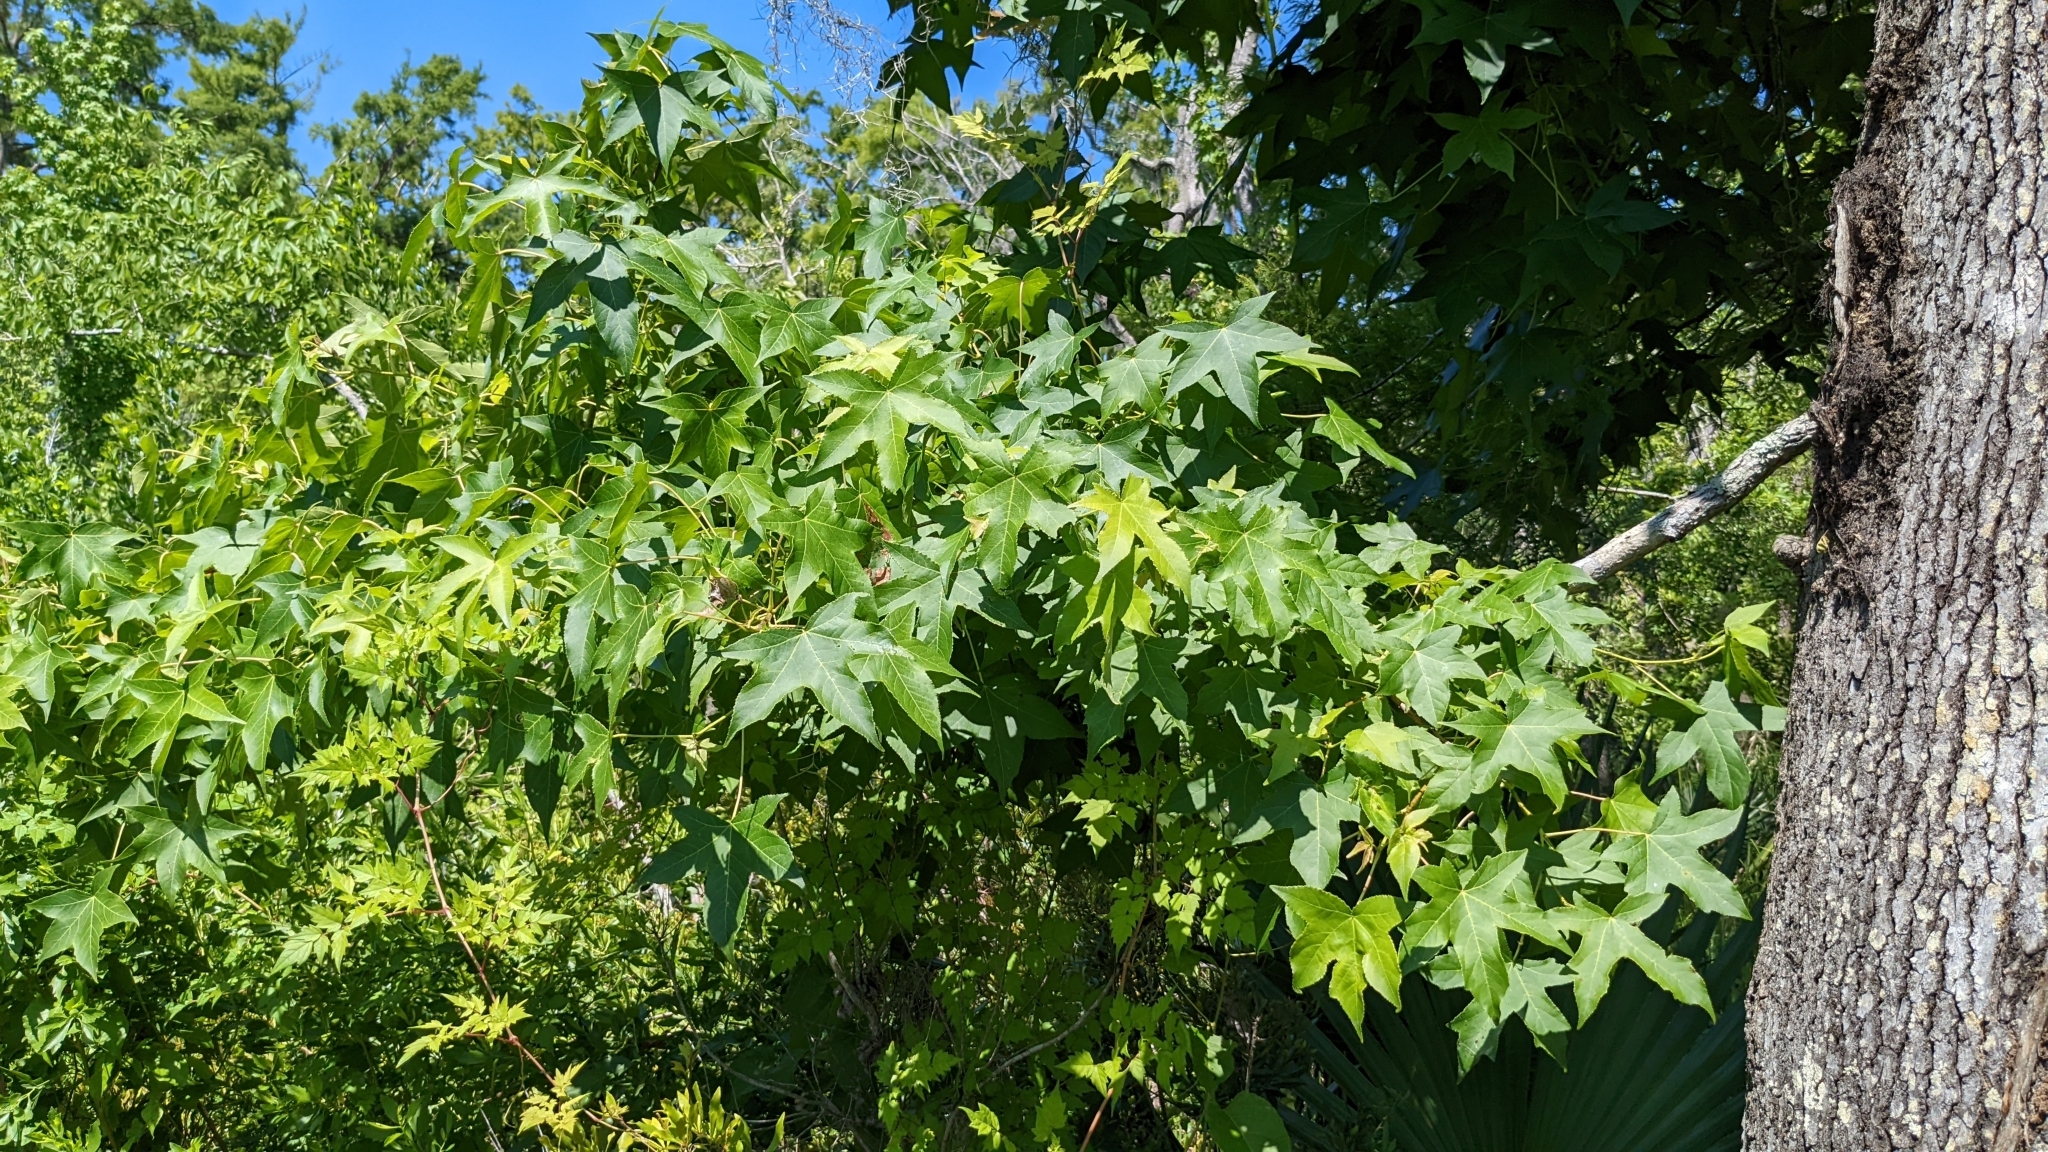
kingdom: Plantae
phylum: Tracheophyta
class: Magnoliopsida
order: Saxifragales
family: Altingiaceae
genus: Liquidambar
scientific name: Liquidambar styraciflua
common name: Sweet gum
